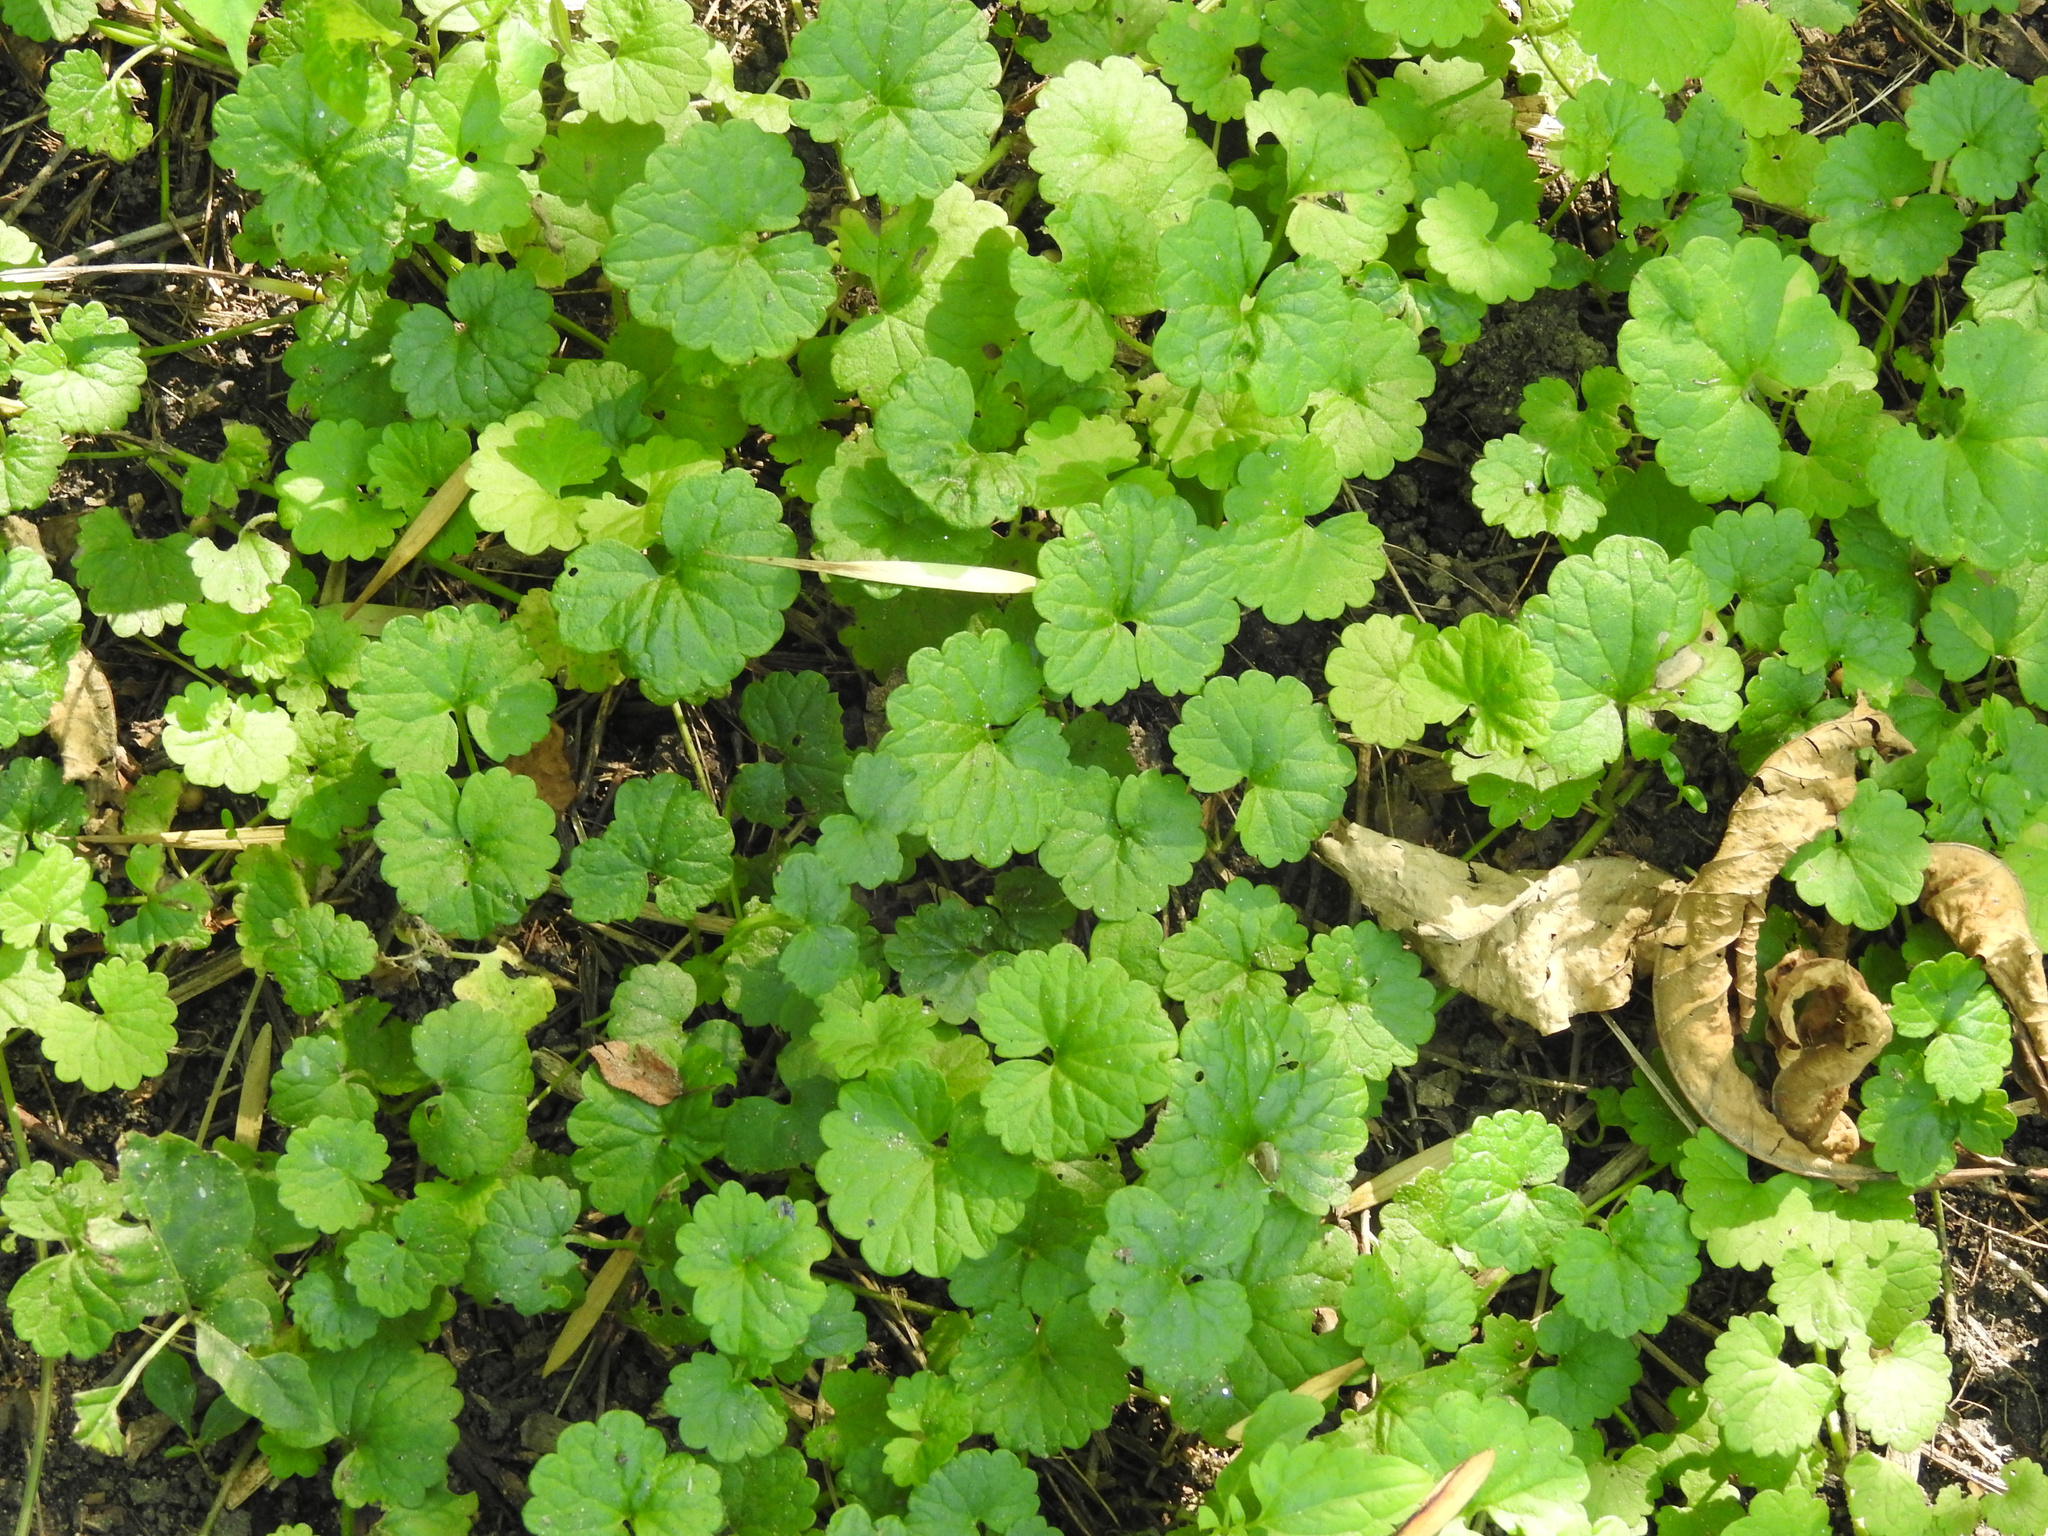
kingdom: Plantae
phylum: Tracheophyta
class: Magnoliopsida
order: Lamiales
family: Lamiaceae
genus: Glechoma
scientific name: Glechoma hederacea
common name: Ground ivy
